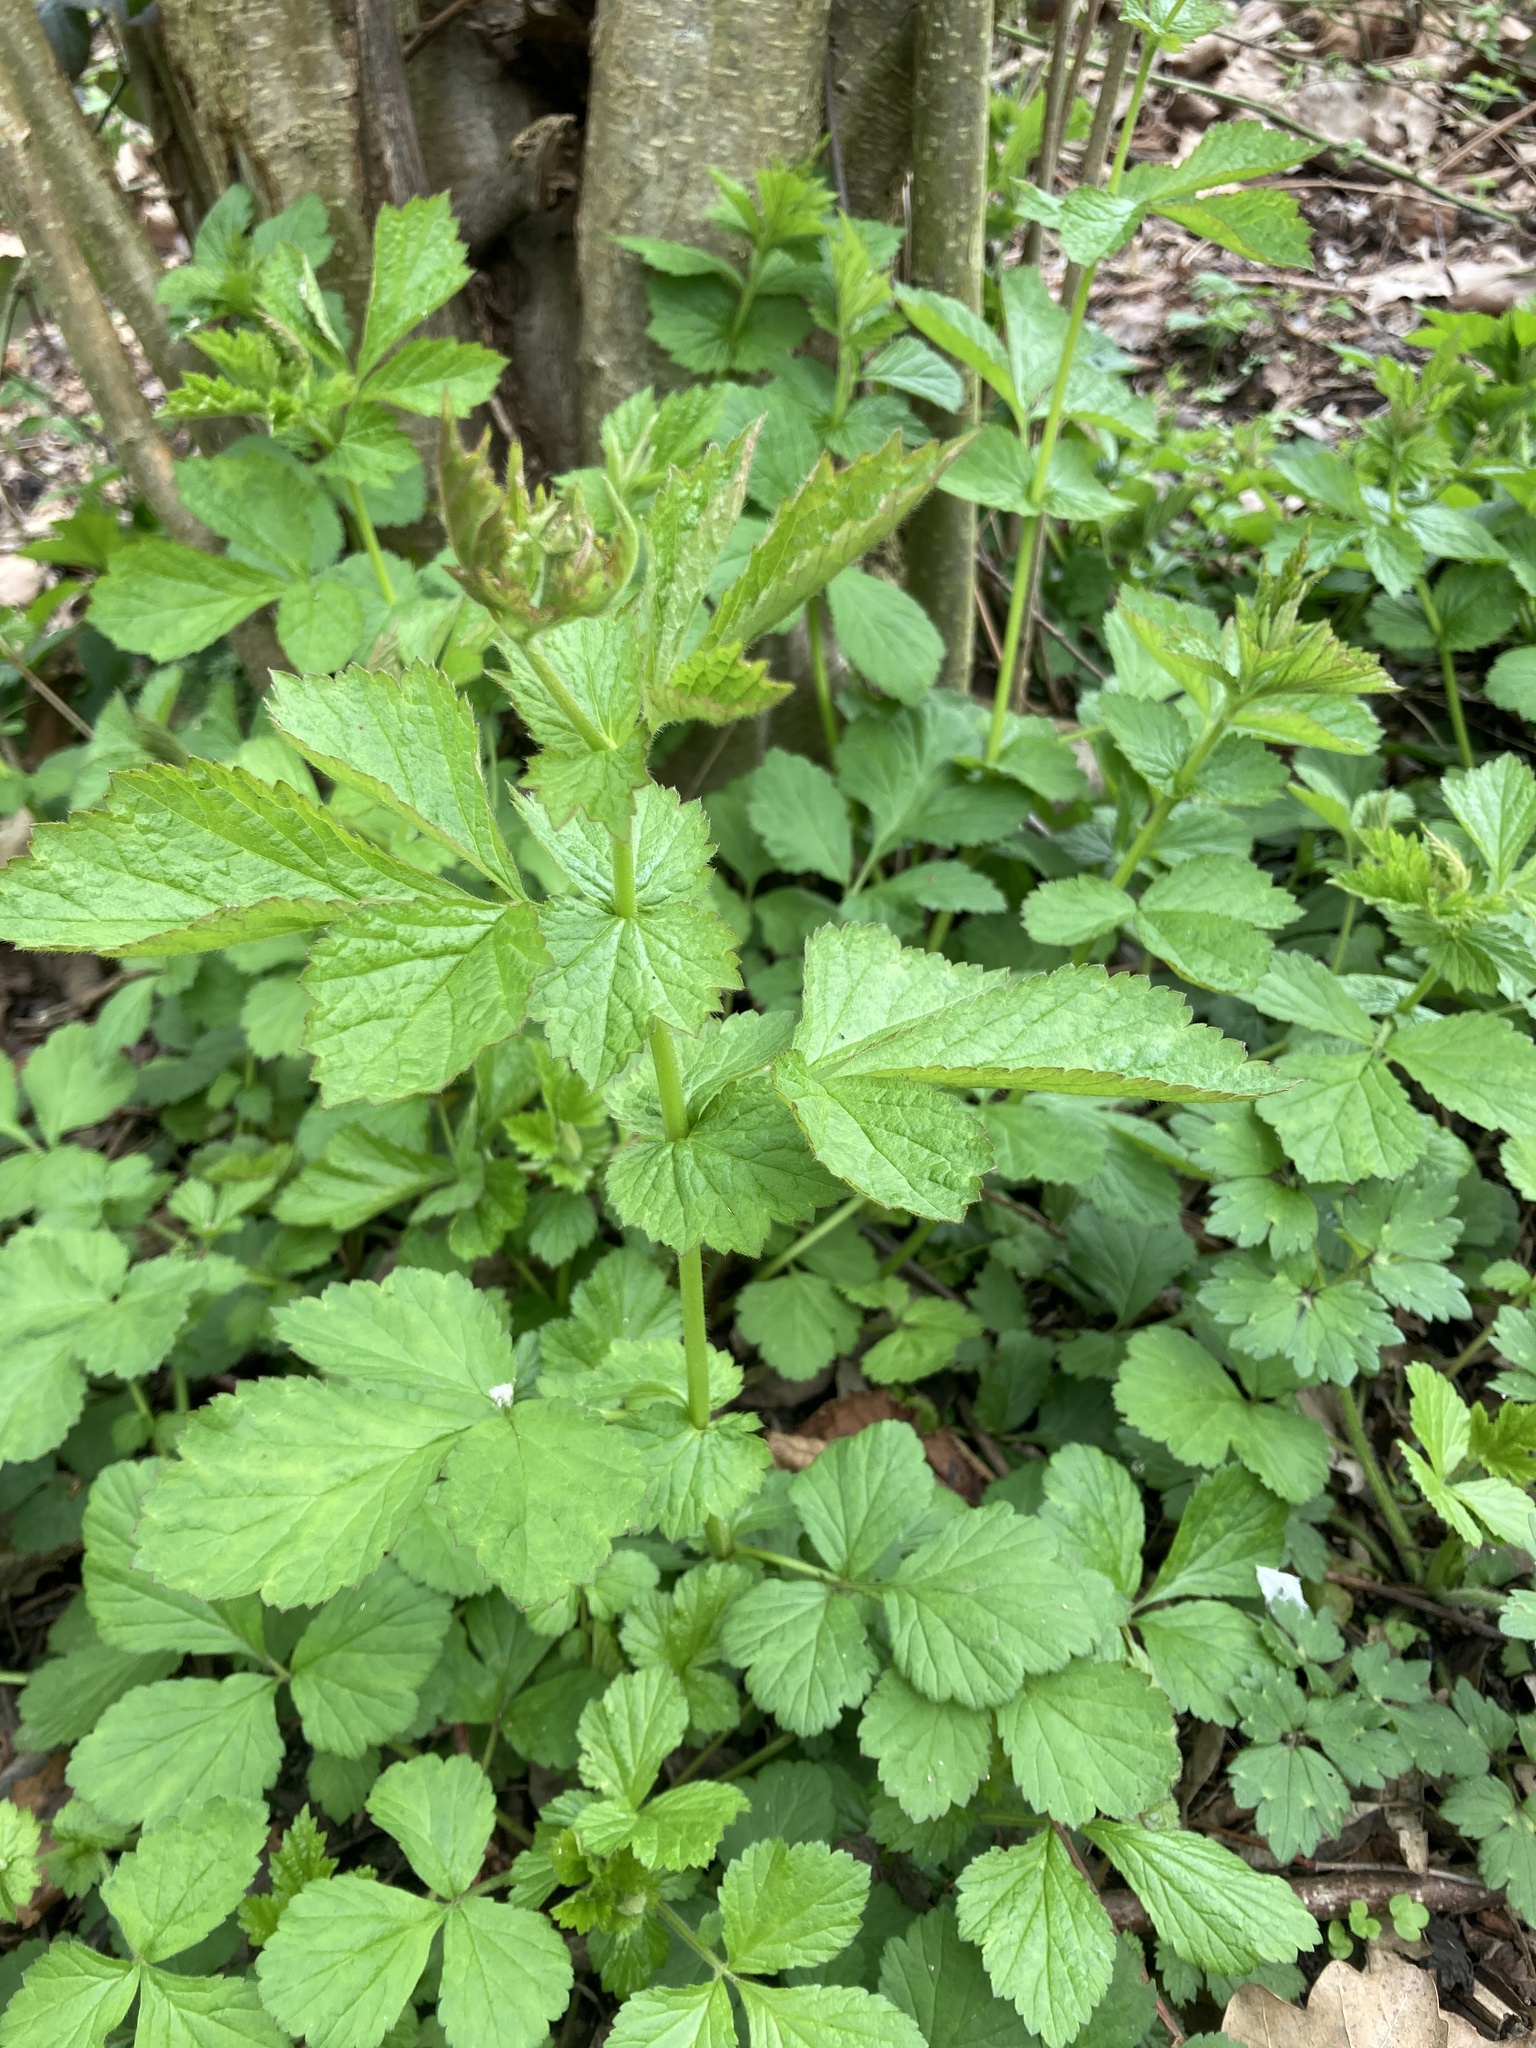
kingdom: Plantae
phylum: Tracheophyta
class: Magnoliopsida
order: Rosales
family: Rosaceae
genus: Geum
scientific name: Geum urbanum
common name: Wood avens
